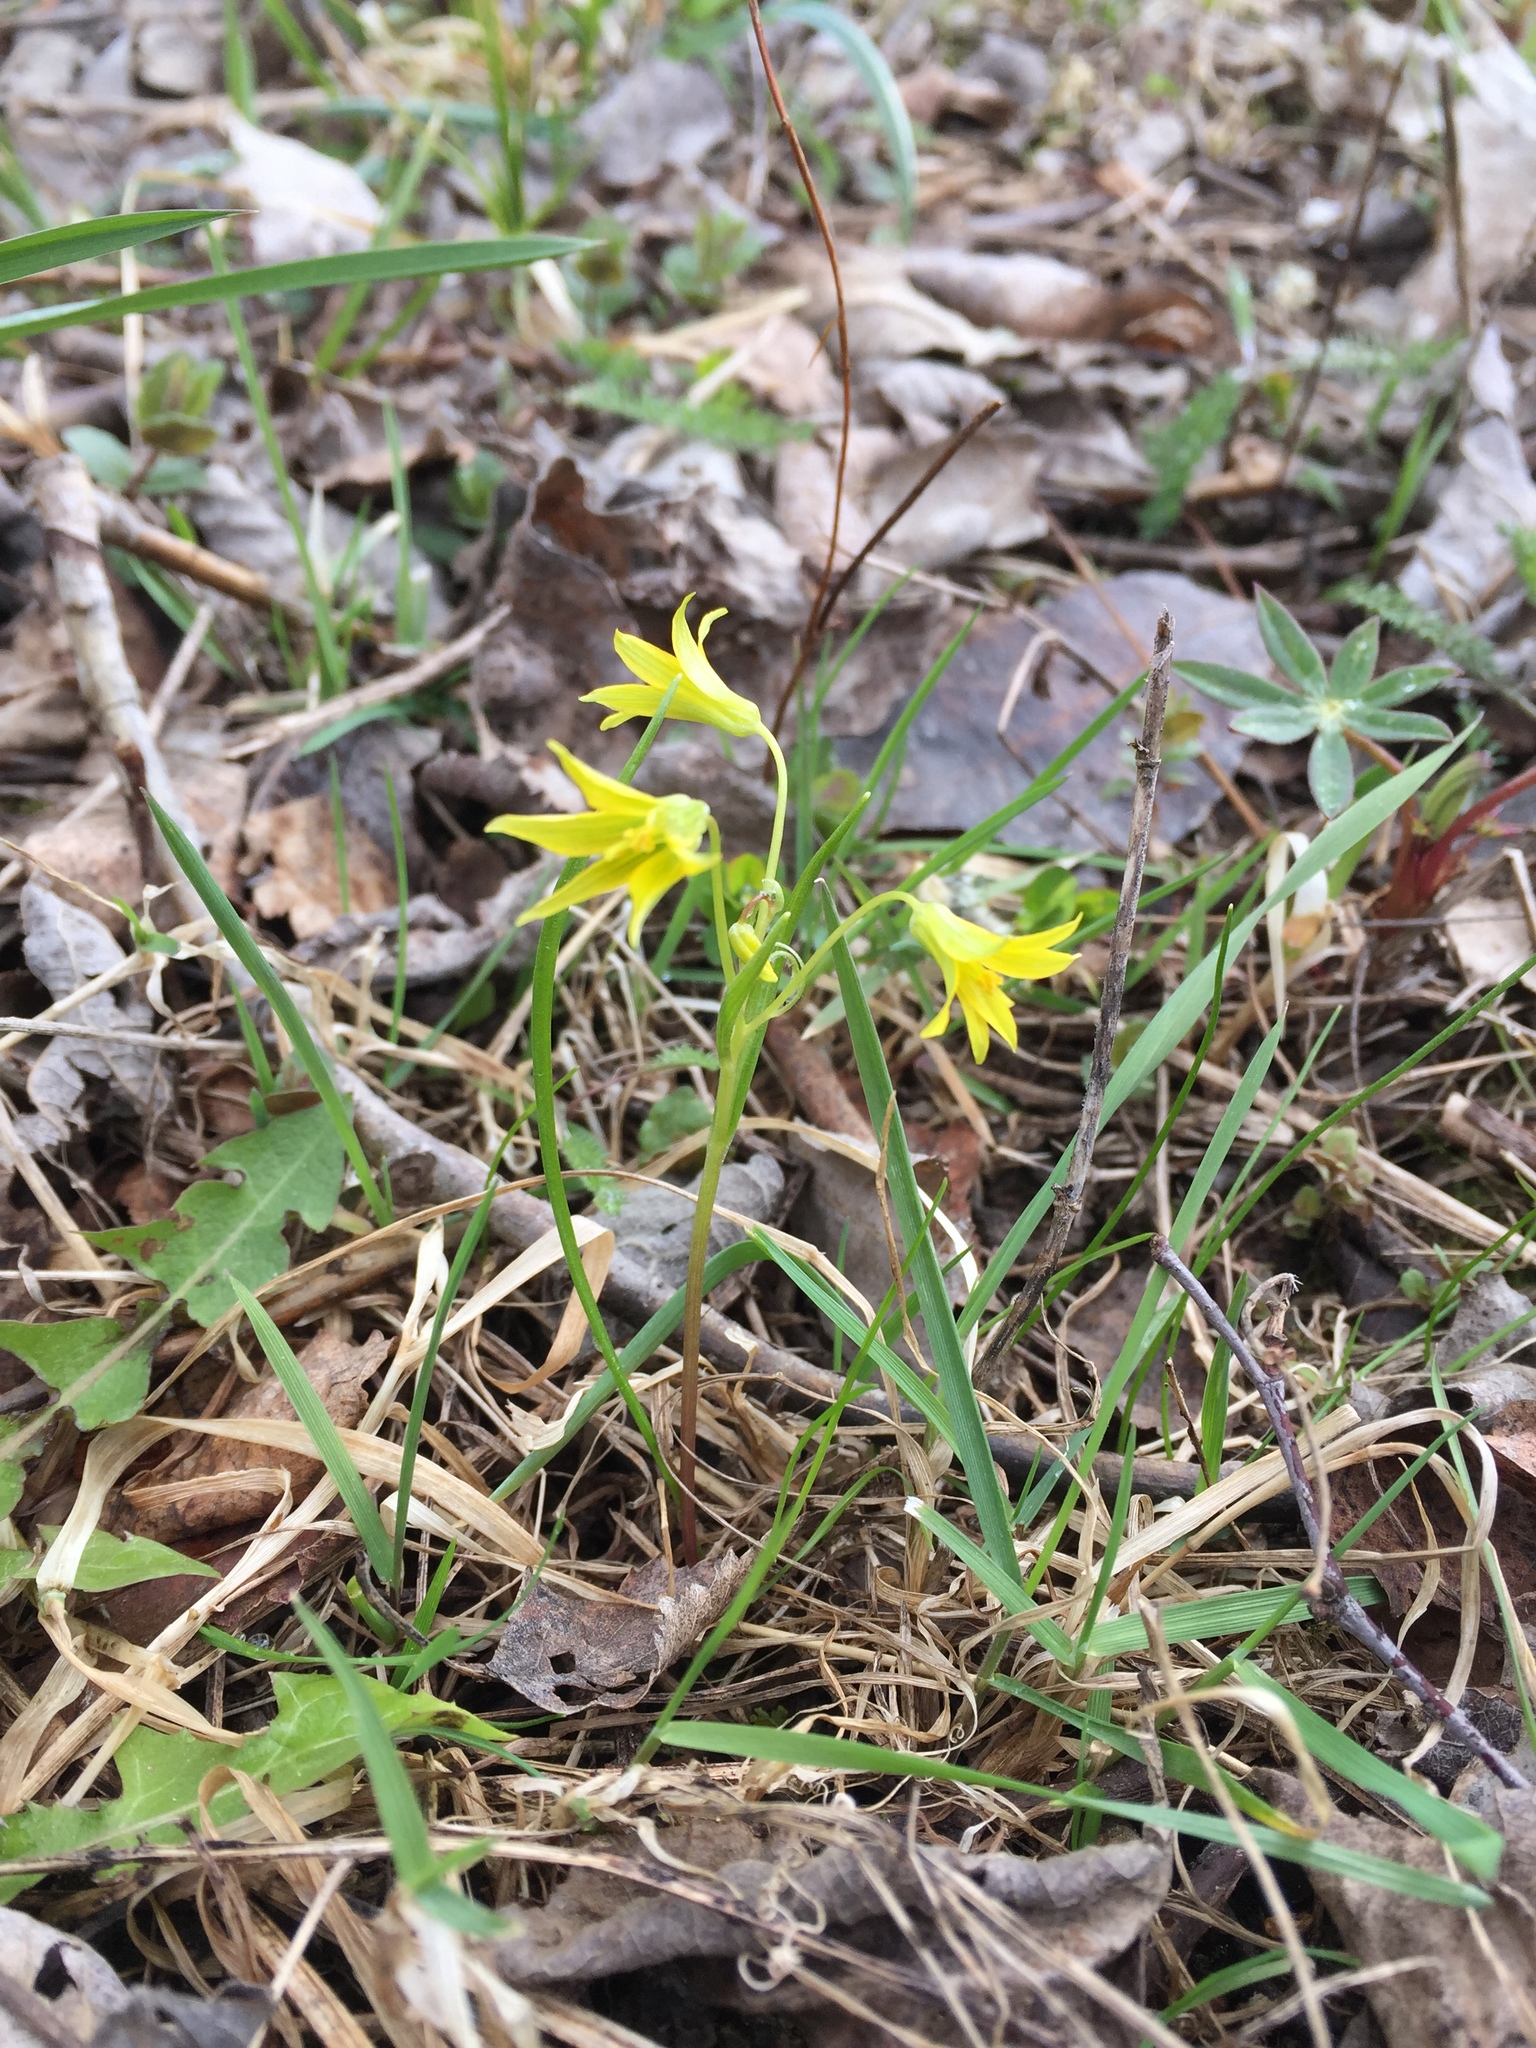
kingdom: Plantae
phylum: Tracheophyta
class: Liliopsida
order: Liliales
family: Liliaceae
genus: Gagea
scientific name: Gagea minima
